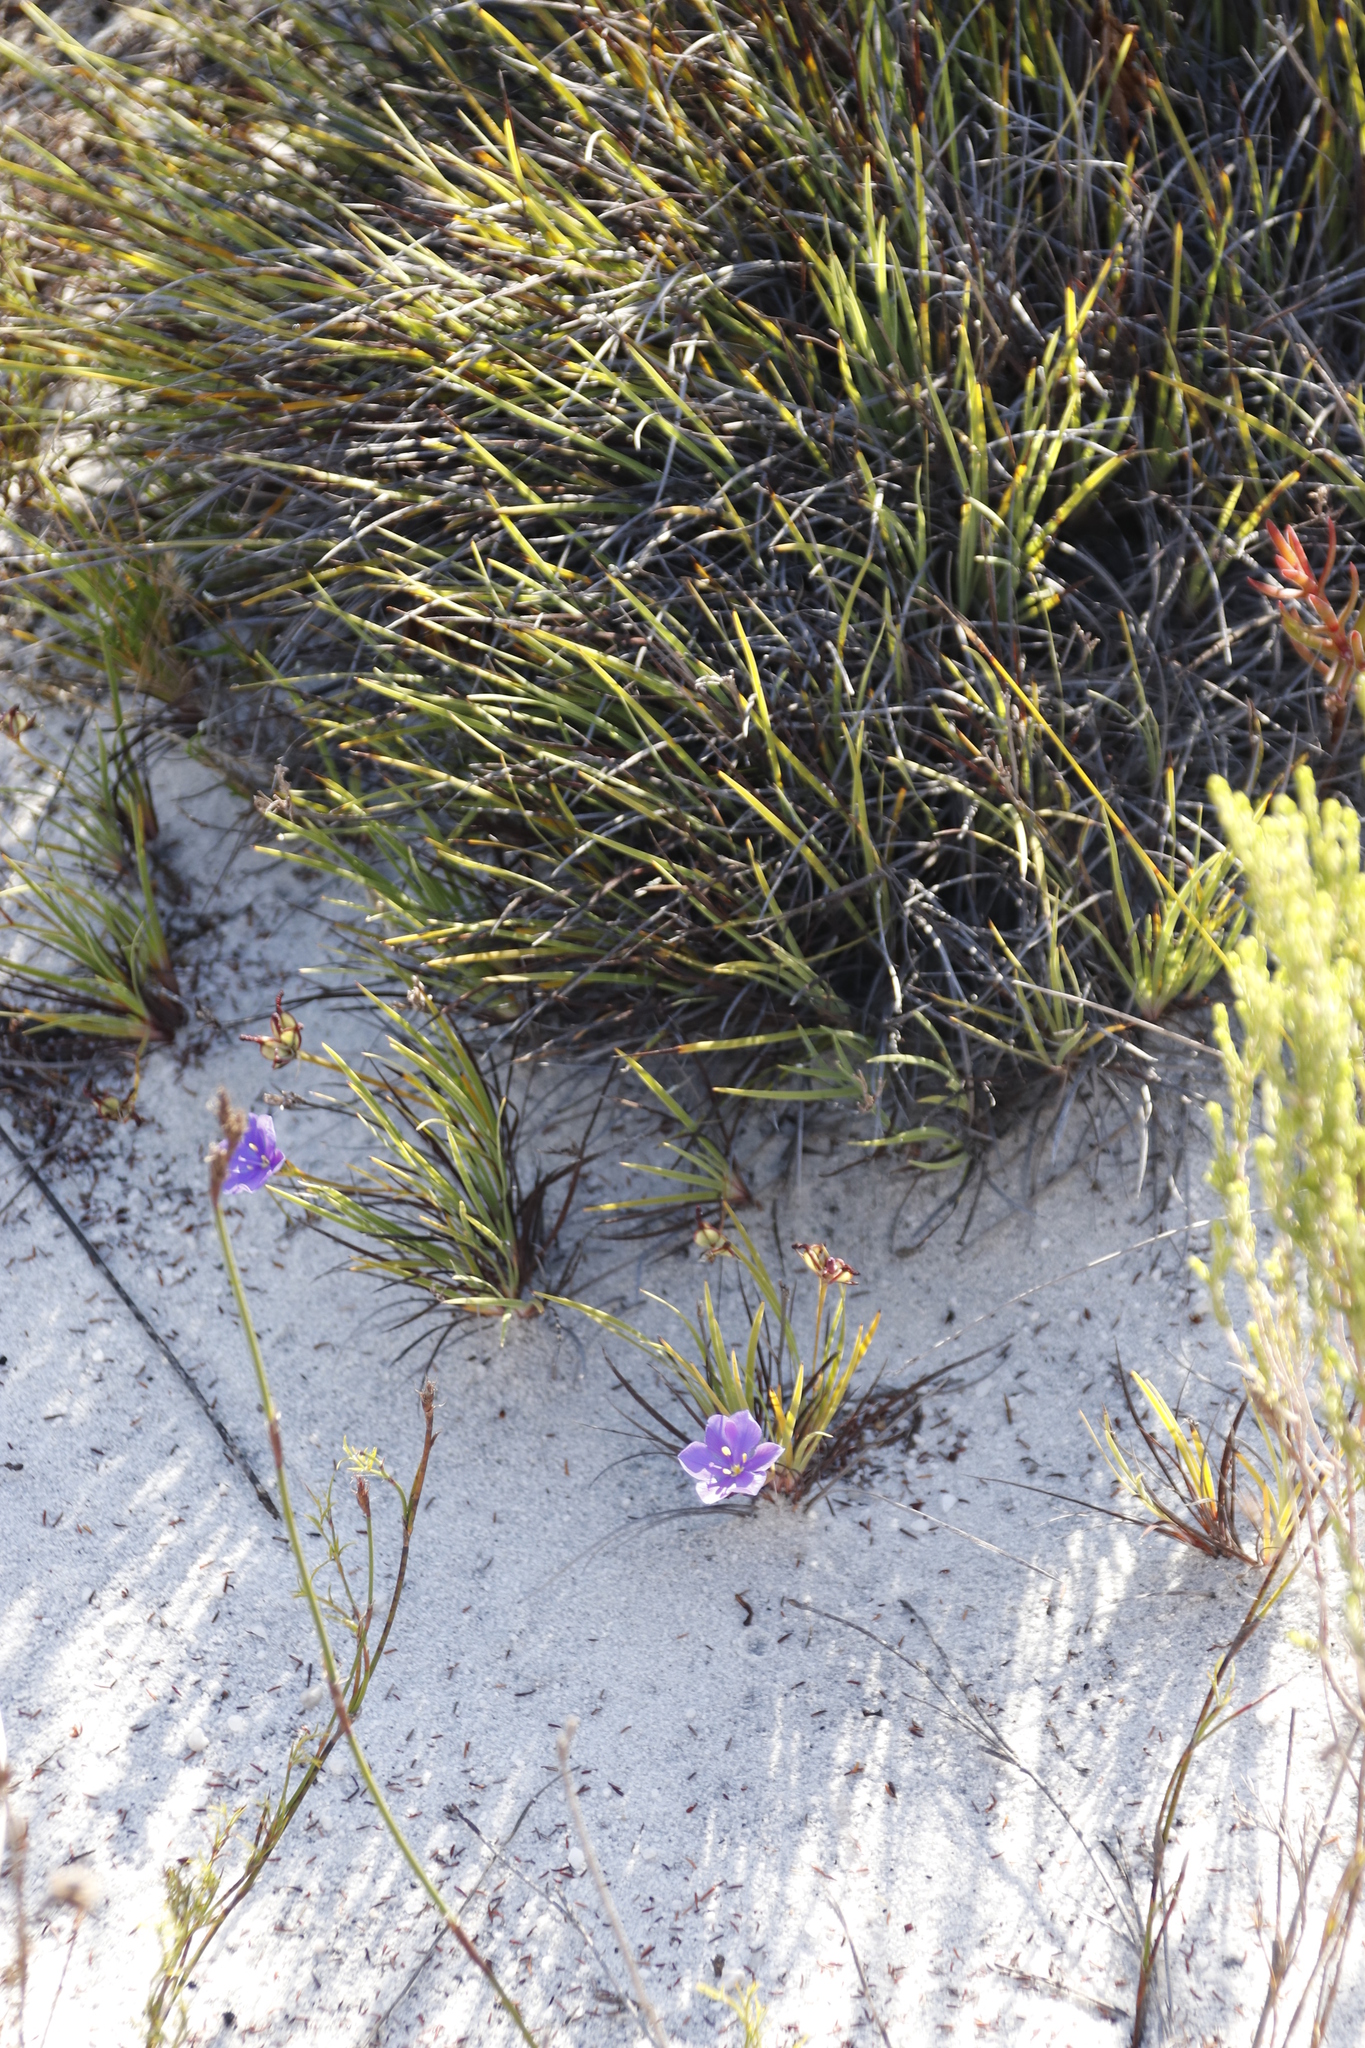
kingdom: Plantae
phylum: Tracheophyta
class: Liliopsida
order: Asparagales
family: Iridaceae
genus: Aristea
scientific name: Aristea africana
